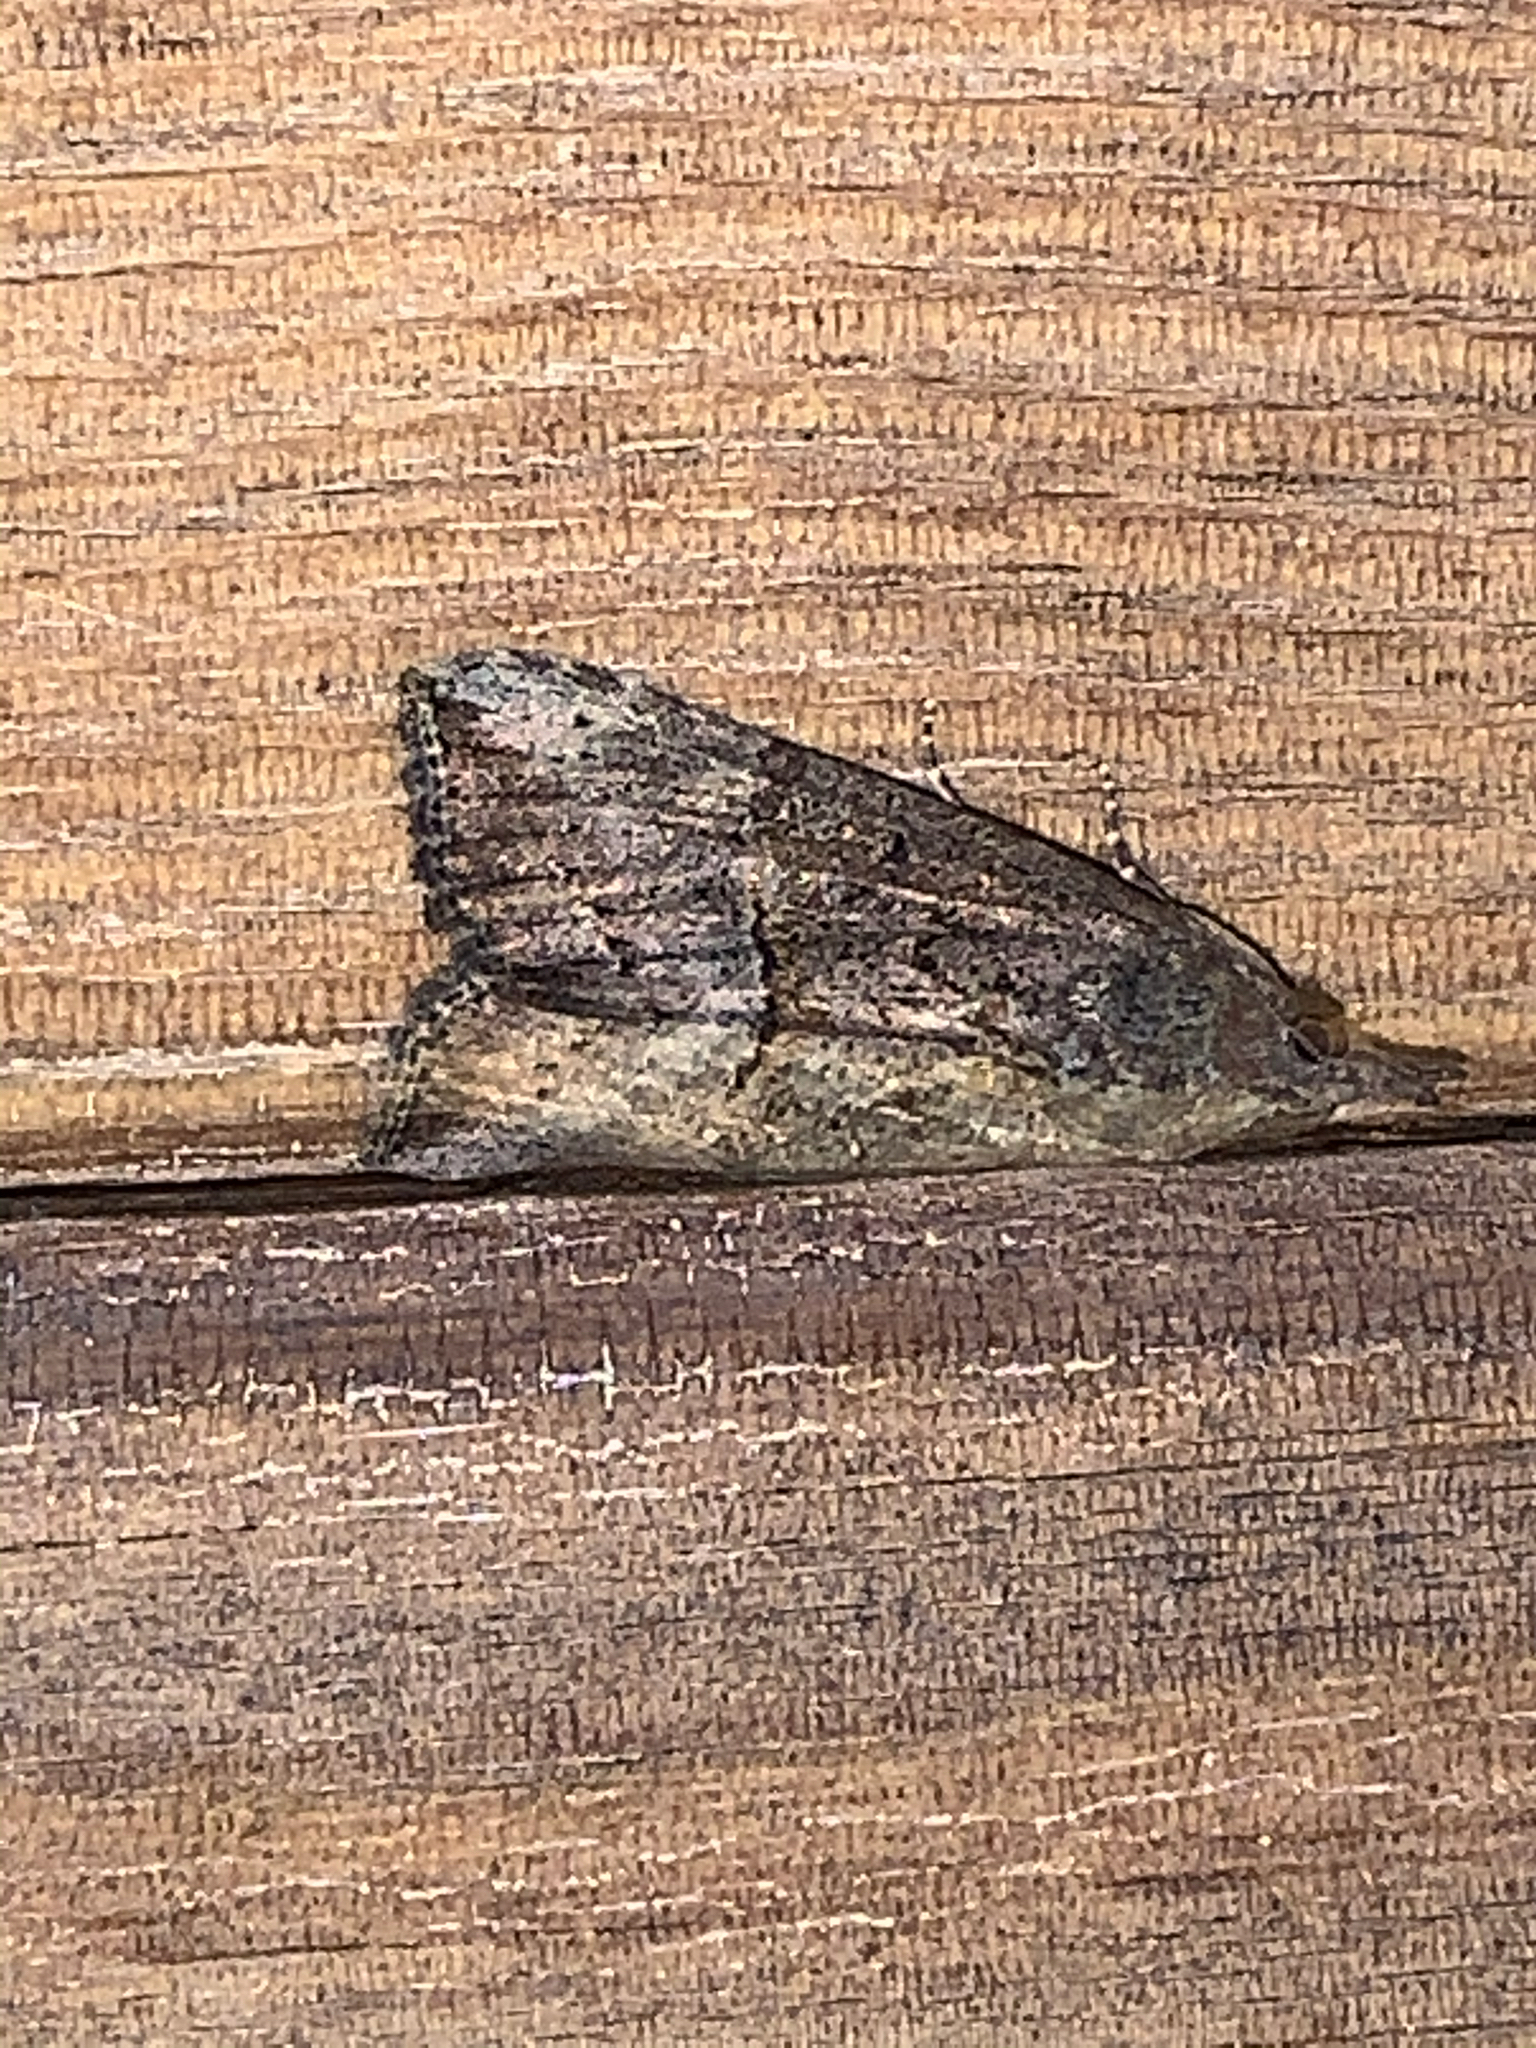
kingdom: Animalia
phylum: Arthropoda
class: Insecta
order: Lepidoptera
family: Erebidae
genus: Hypena
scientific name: Hypena scabra
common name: Green cloverworm
